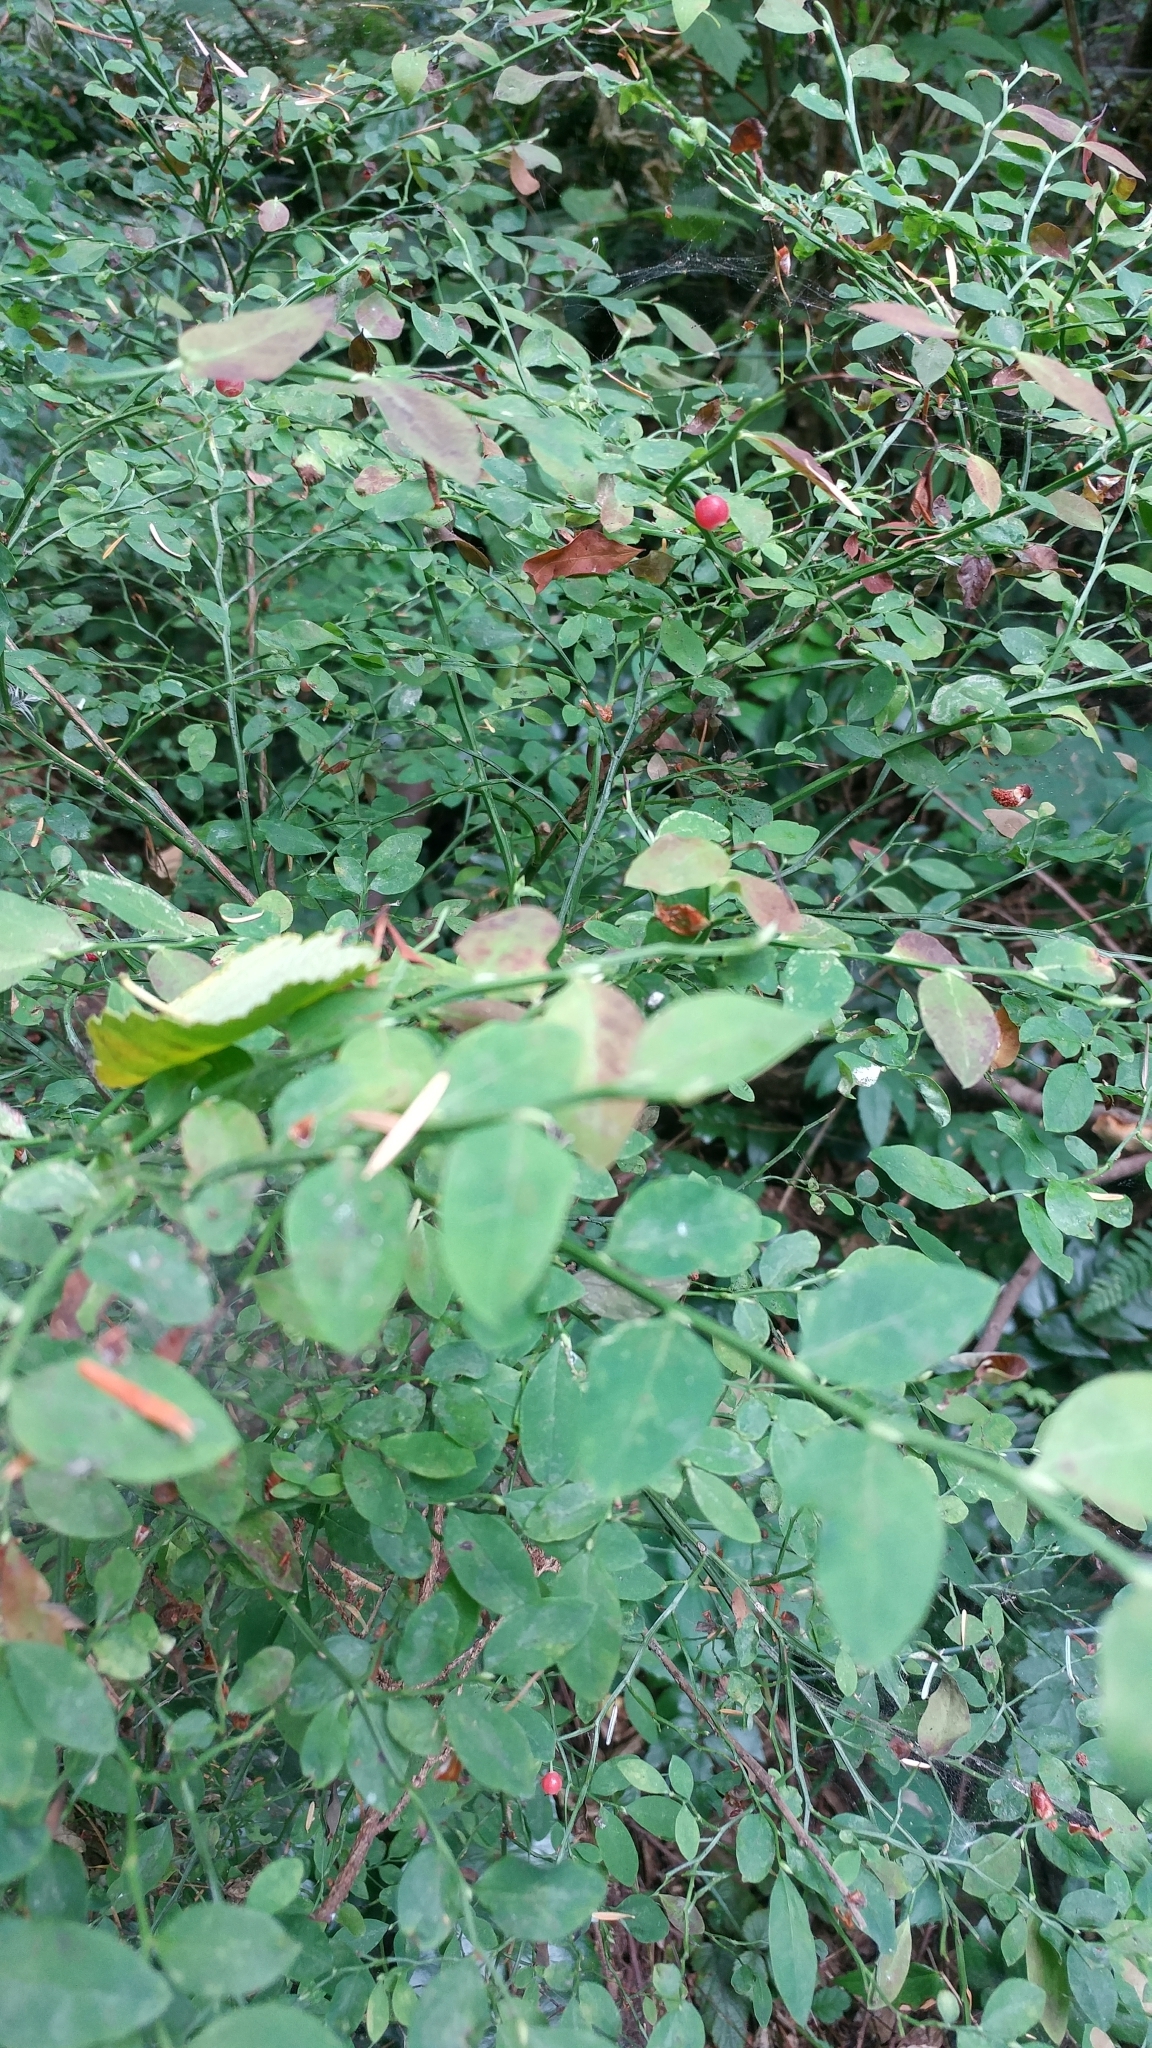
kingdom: Plantae
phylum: Tracheophyta
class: Magnoliopsida
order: Ericales
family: Ericaceae
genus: Vaccinium
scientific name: Vaccinium parvifolium
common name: Red-huckleberry
